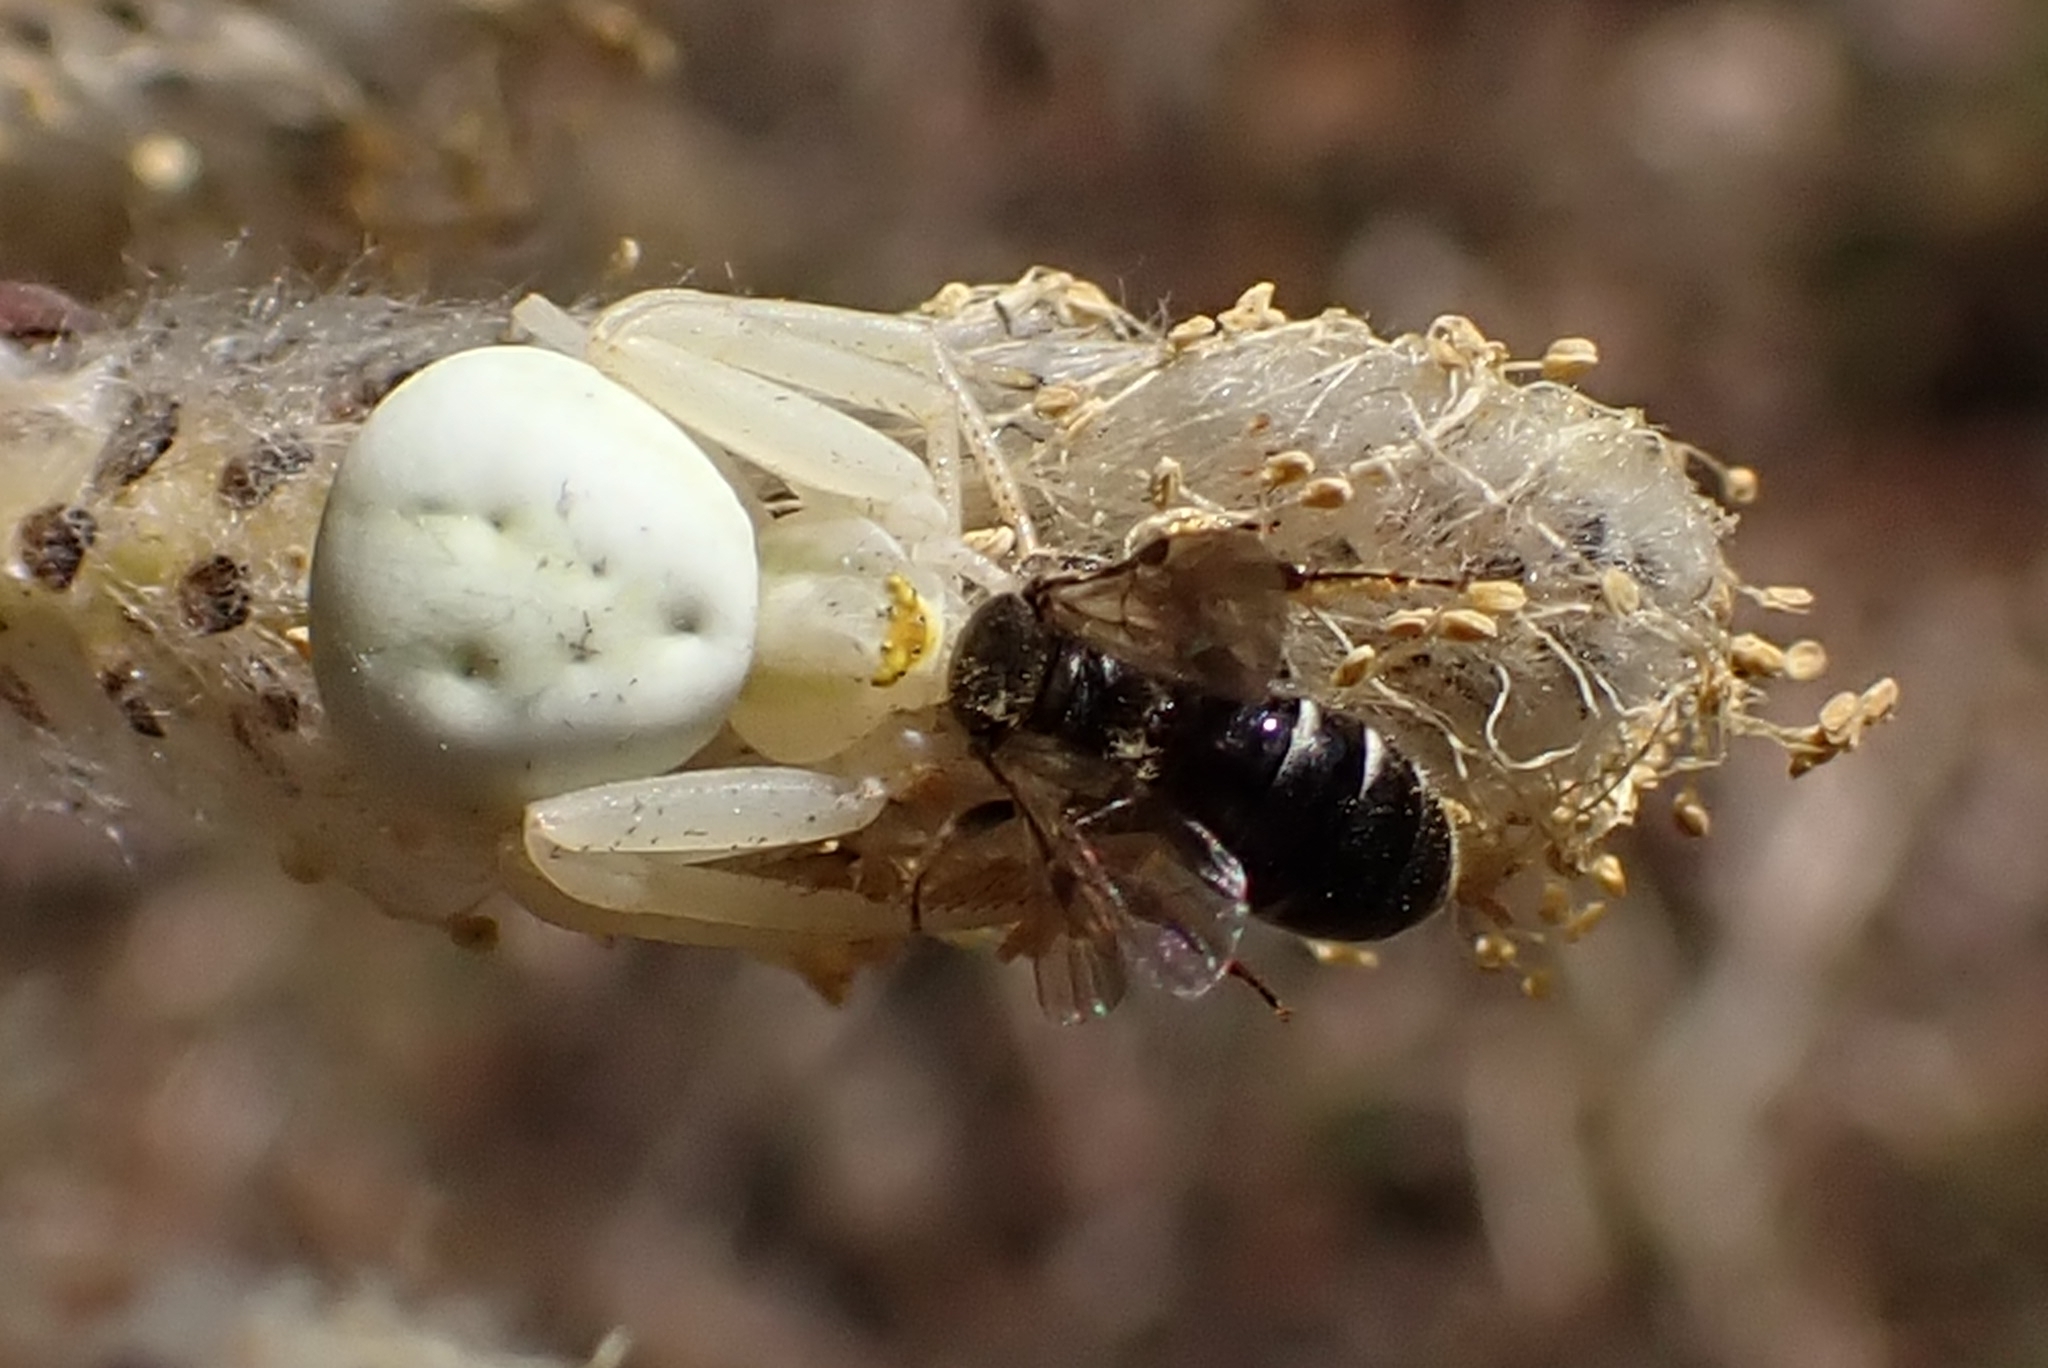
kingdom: Animalia
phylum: Arthropoda
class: Arachnida
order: Araneae
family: Thomisidae
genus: Misumena
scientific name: Misumena vatia
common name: Goldenrod crab spider
